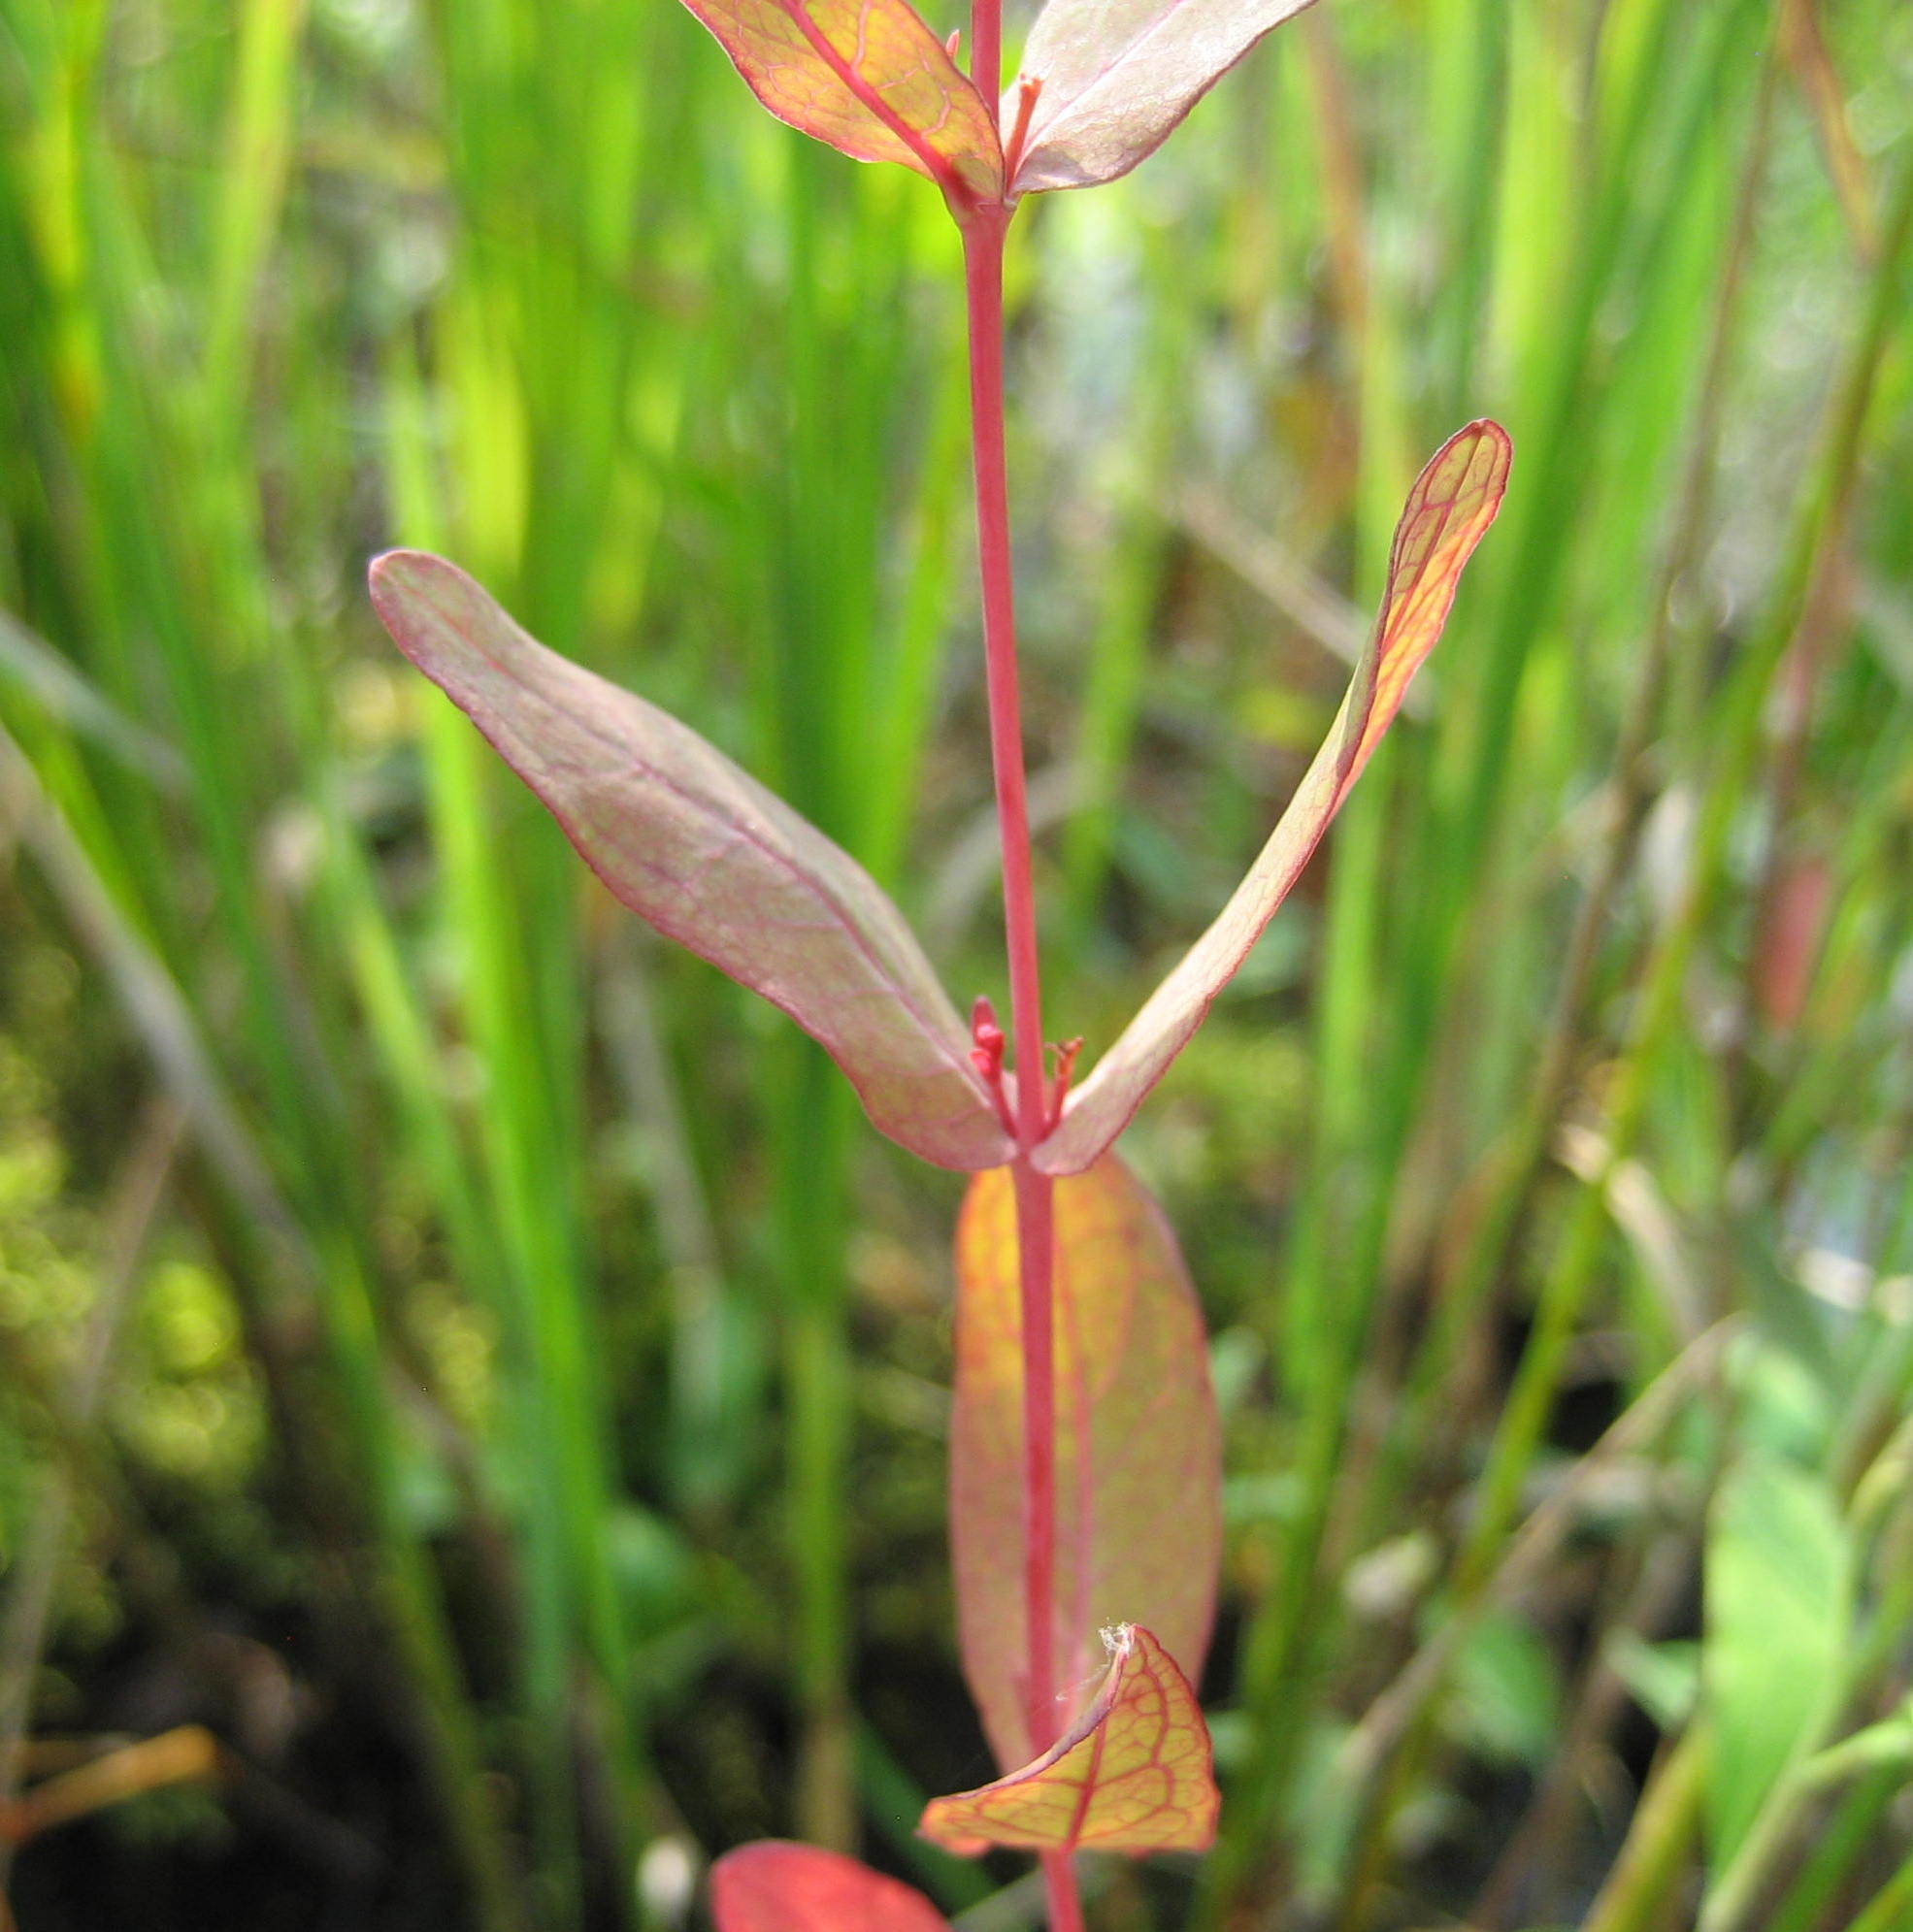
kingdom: Plantae
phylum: Tracheophyta
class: Magnoliopsida
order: Malpighiales
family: Hypericaceae
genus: Triadenum
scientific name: Triadenum fraseri
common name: Fraser's marsh st. johnswort
